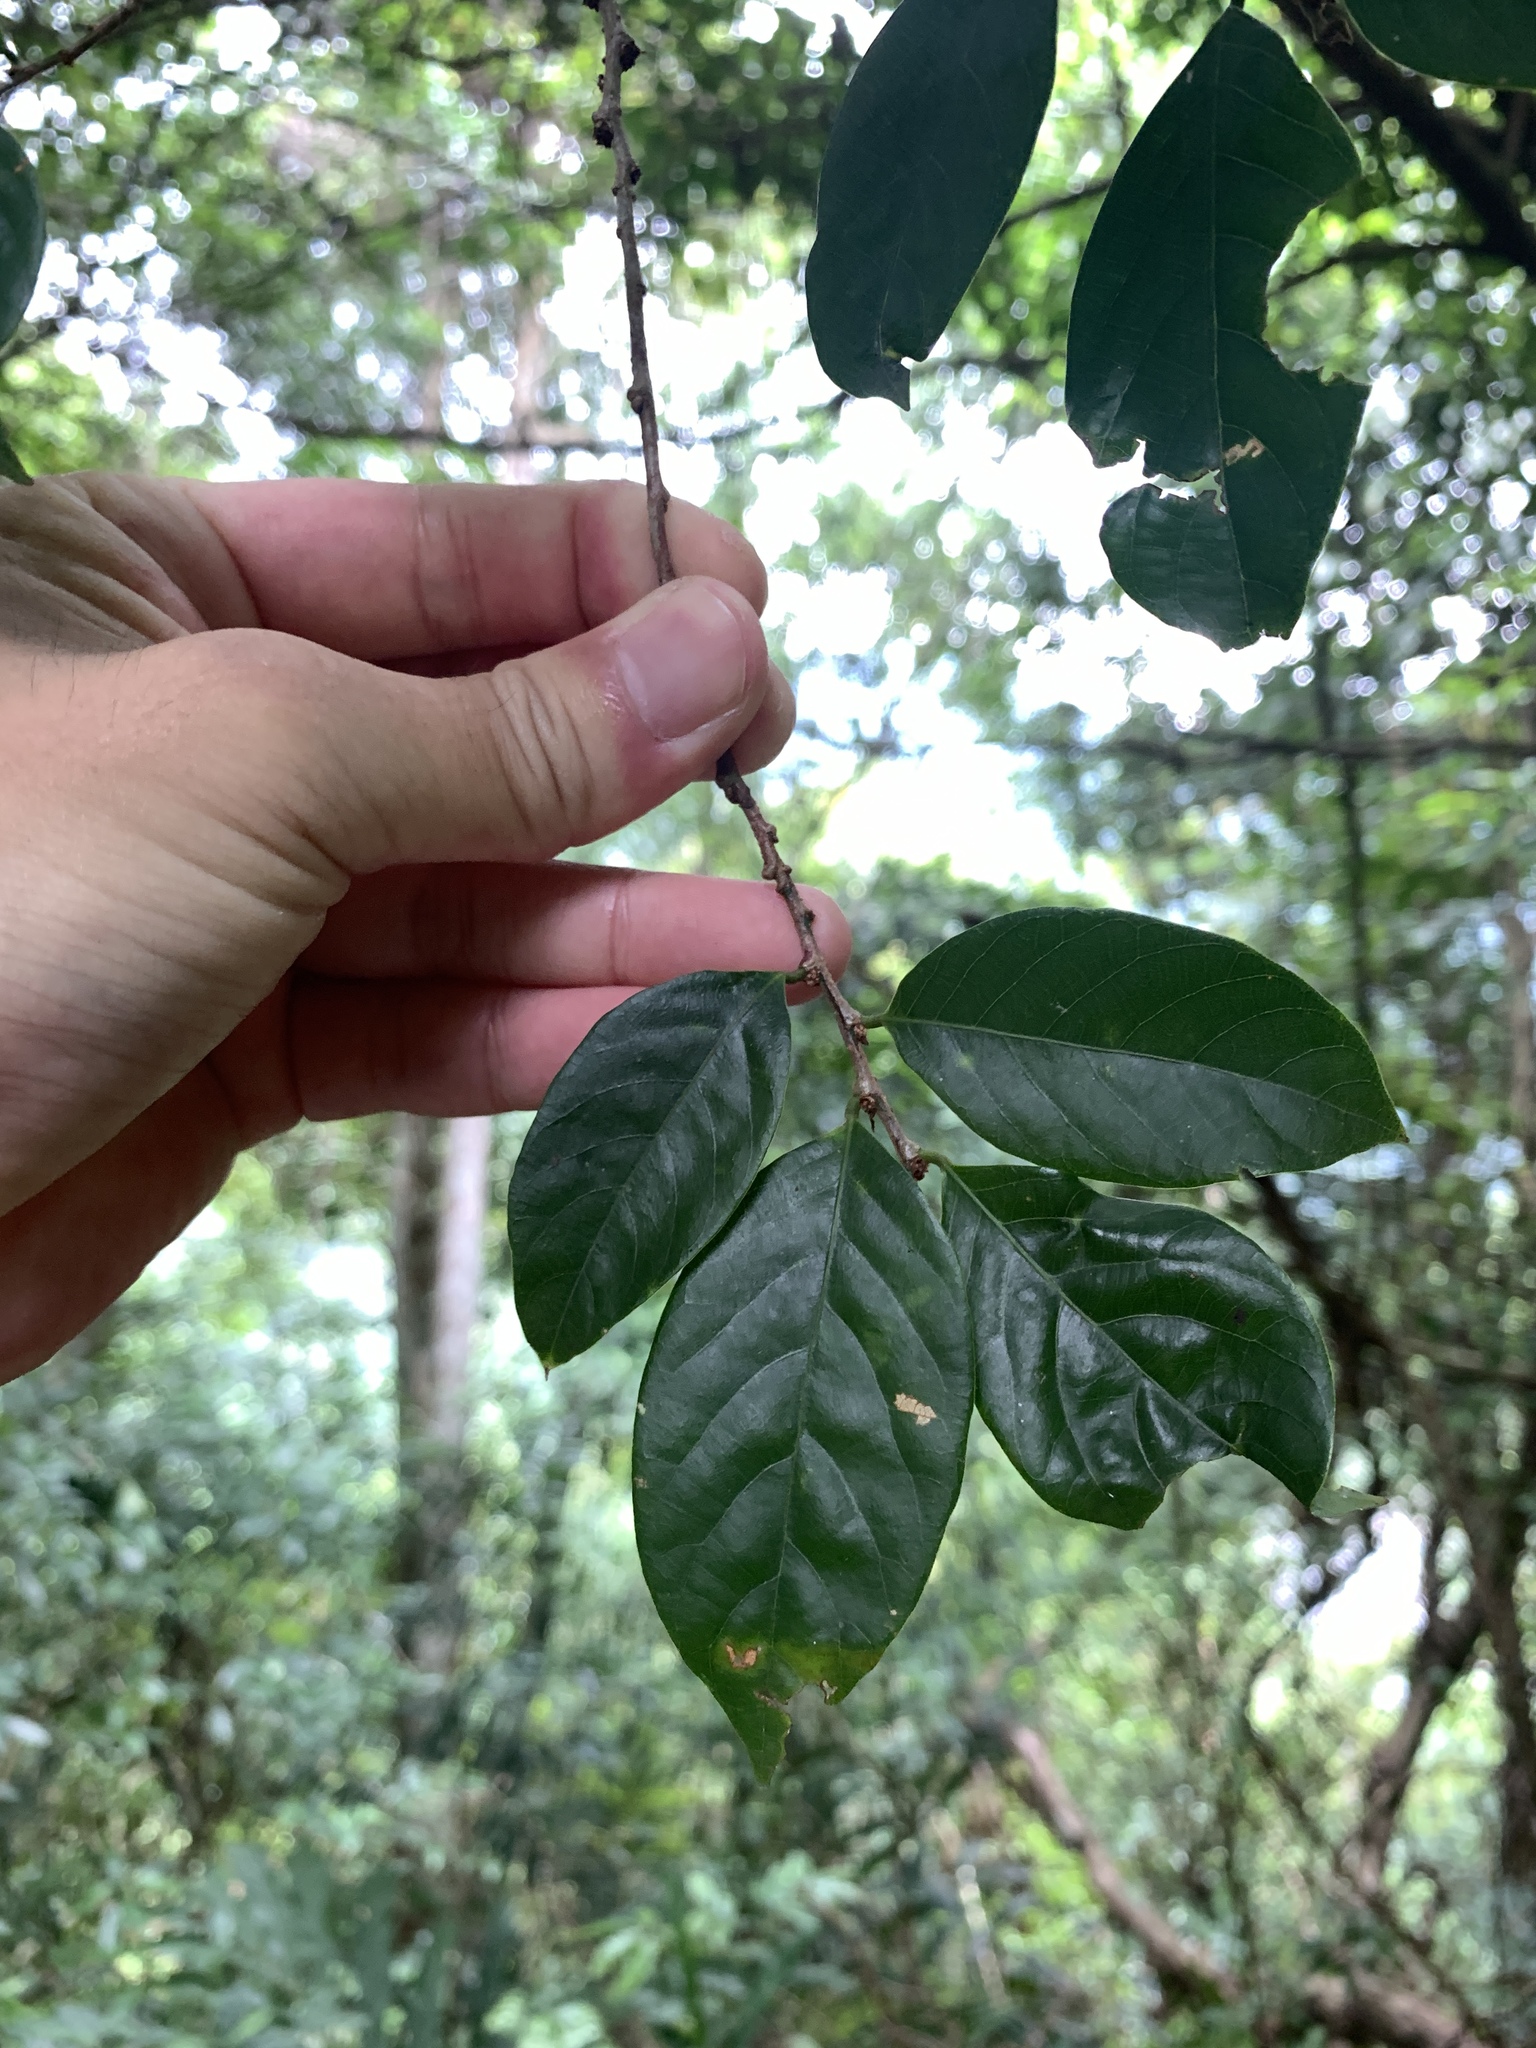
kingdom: Plantae
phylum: Tracheophyta
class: Magnoliopsida
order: Malpighiales
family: Phyllanthaceae
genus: Bridelia
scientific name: Bridelia balansae
